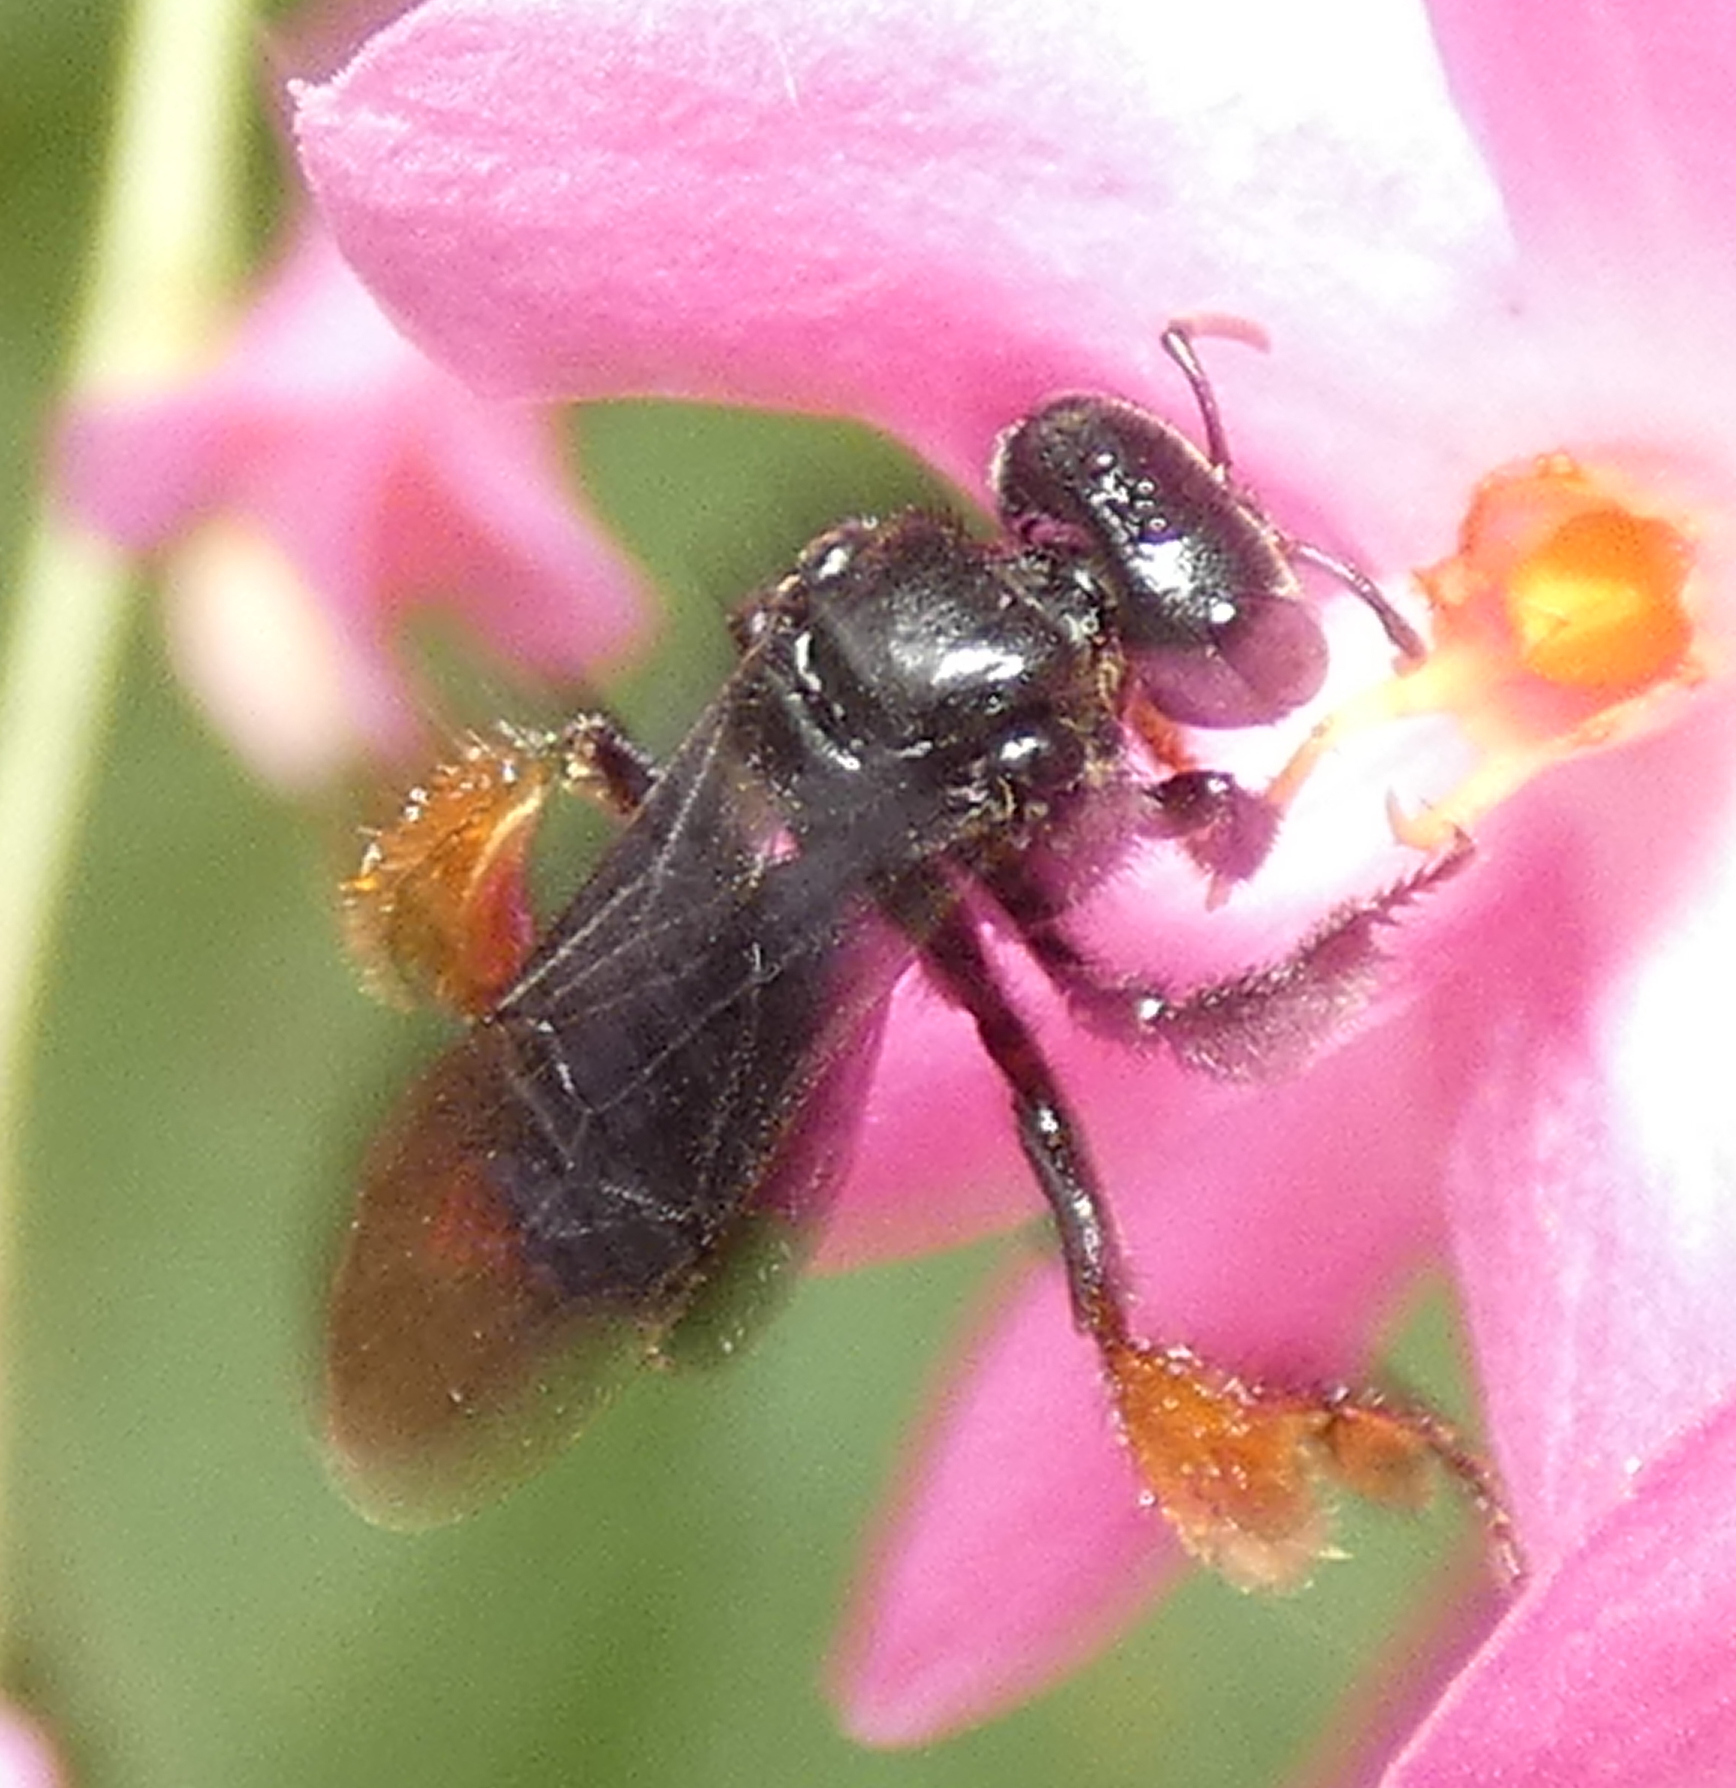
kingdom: Animalia
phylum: Arthropoda
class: Insecta
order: Hymenoptera
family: Apidae
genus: Trigona
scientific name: Trigona spinipes
